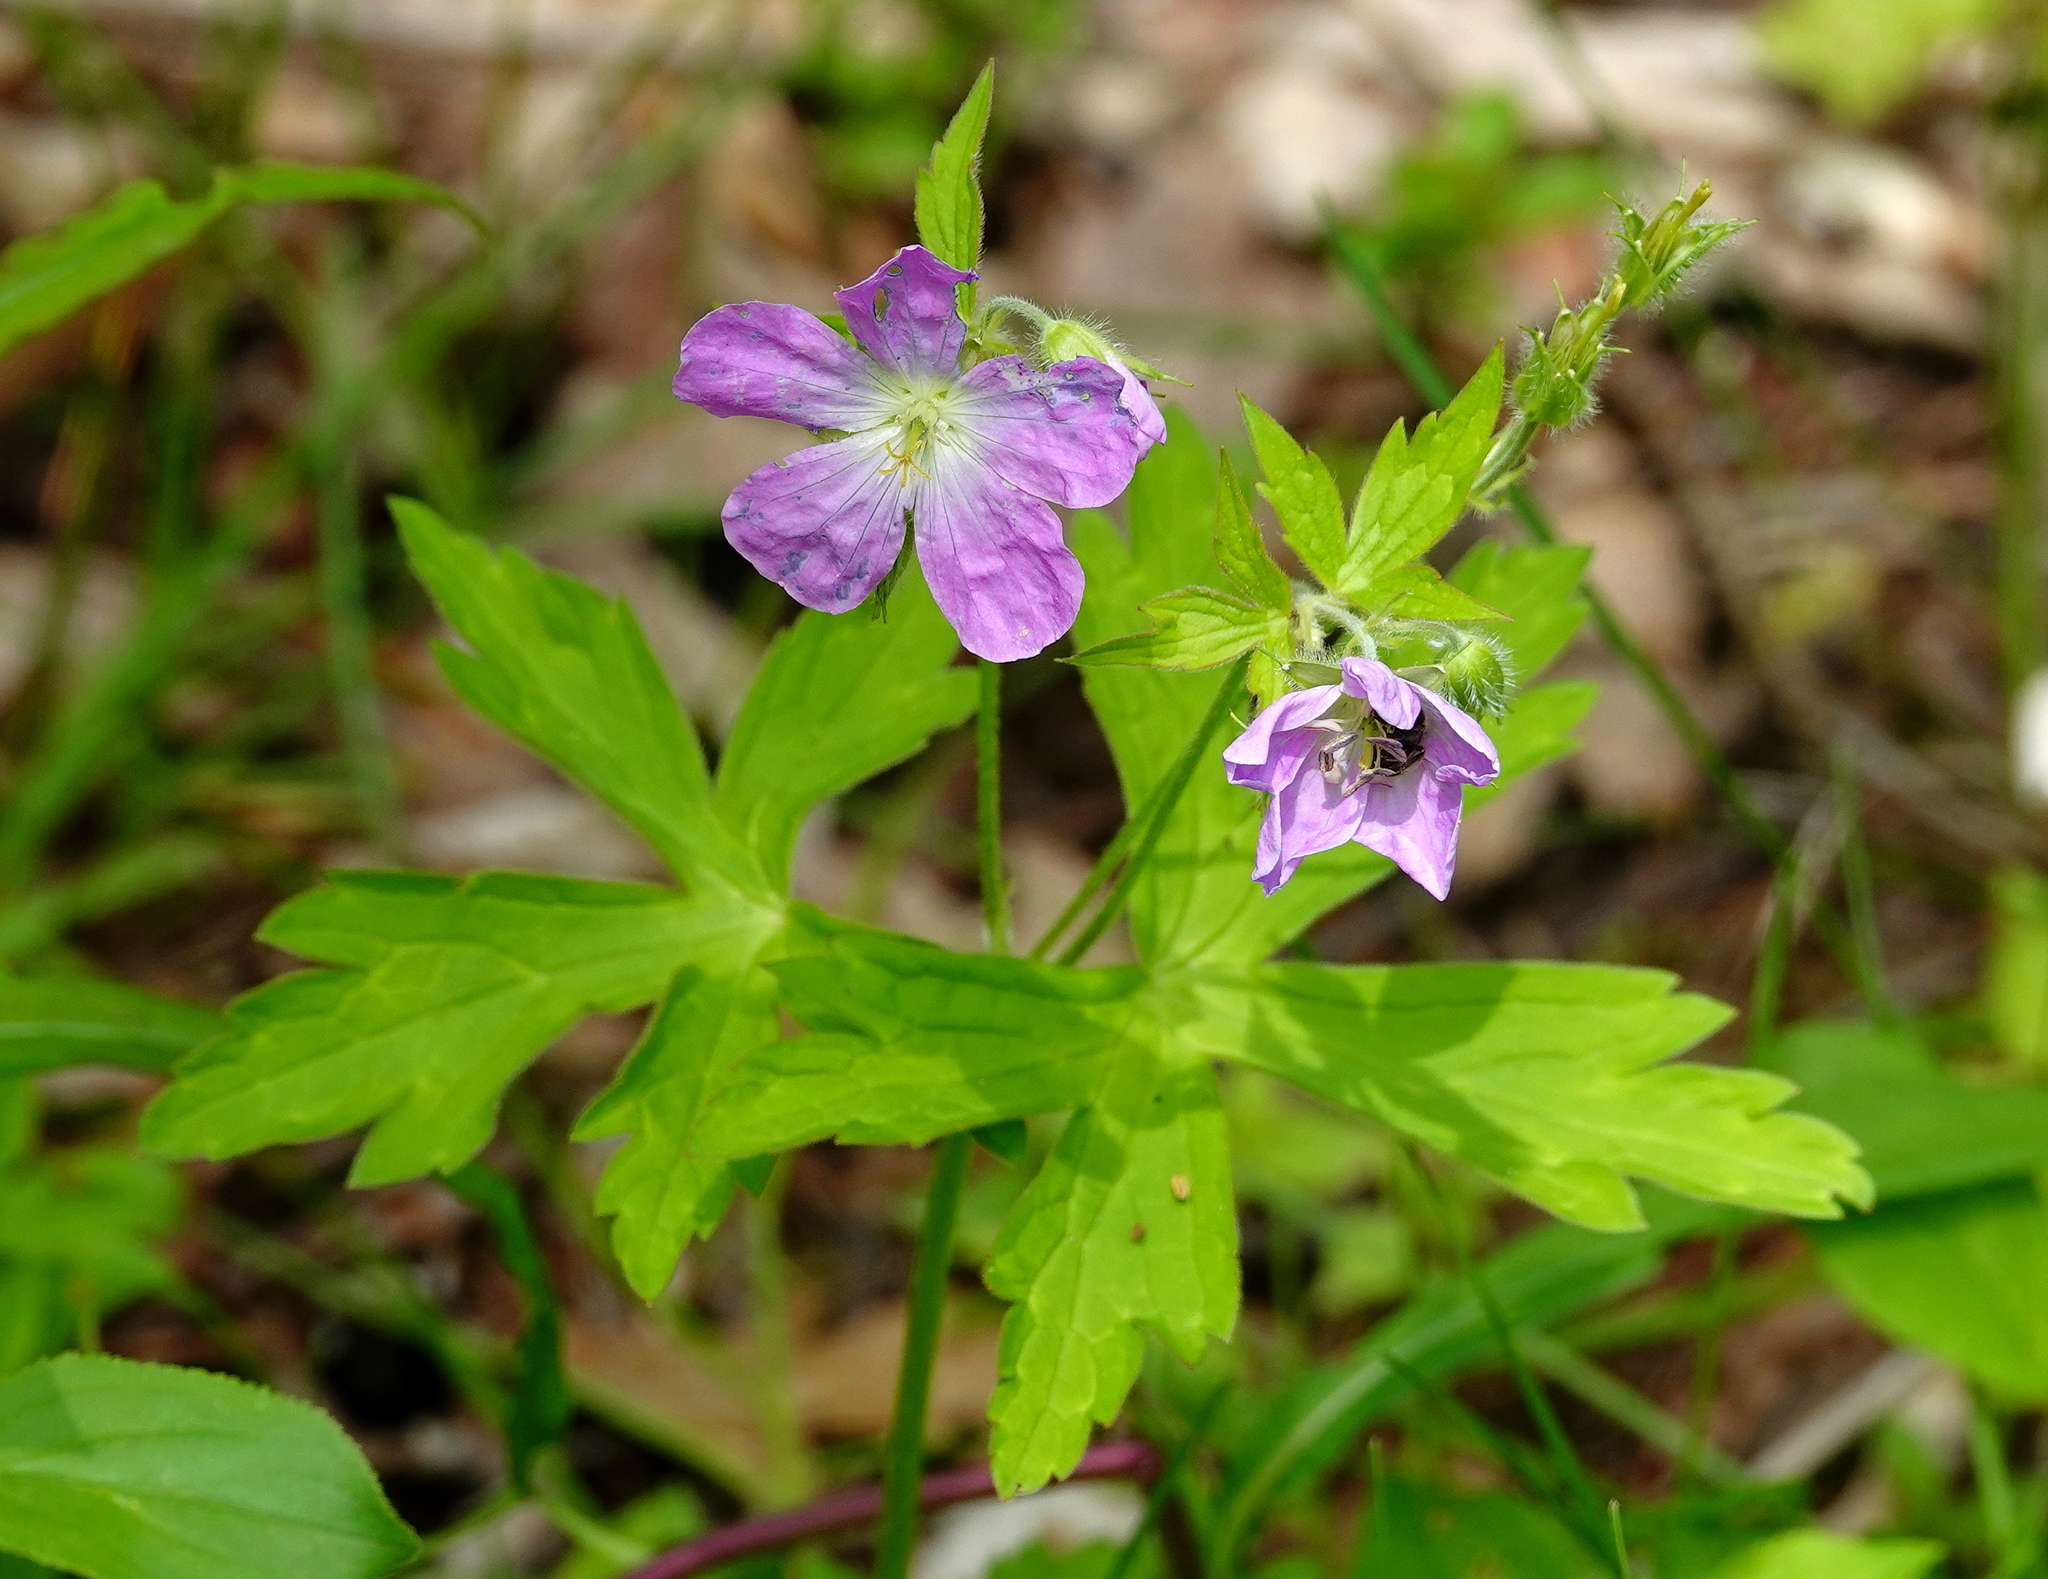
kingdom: Plantae
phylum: Tracheophyta
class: Magnoliopsida
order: Geraniales
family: Geraniaceae
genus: Geranium
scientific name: Geranium maculatum
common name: Spotted geranium
